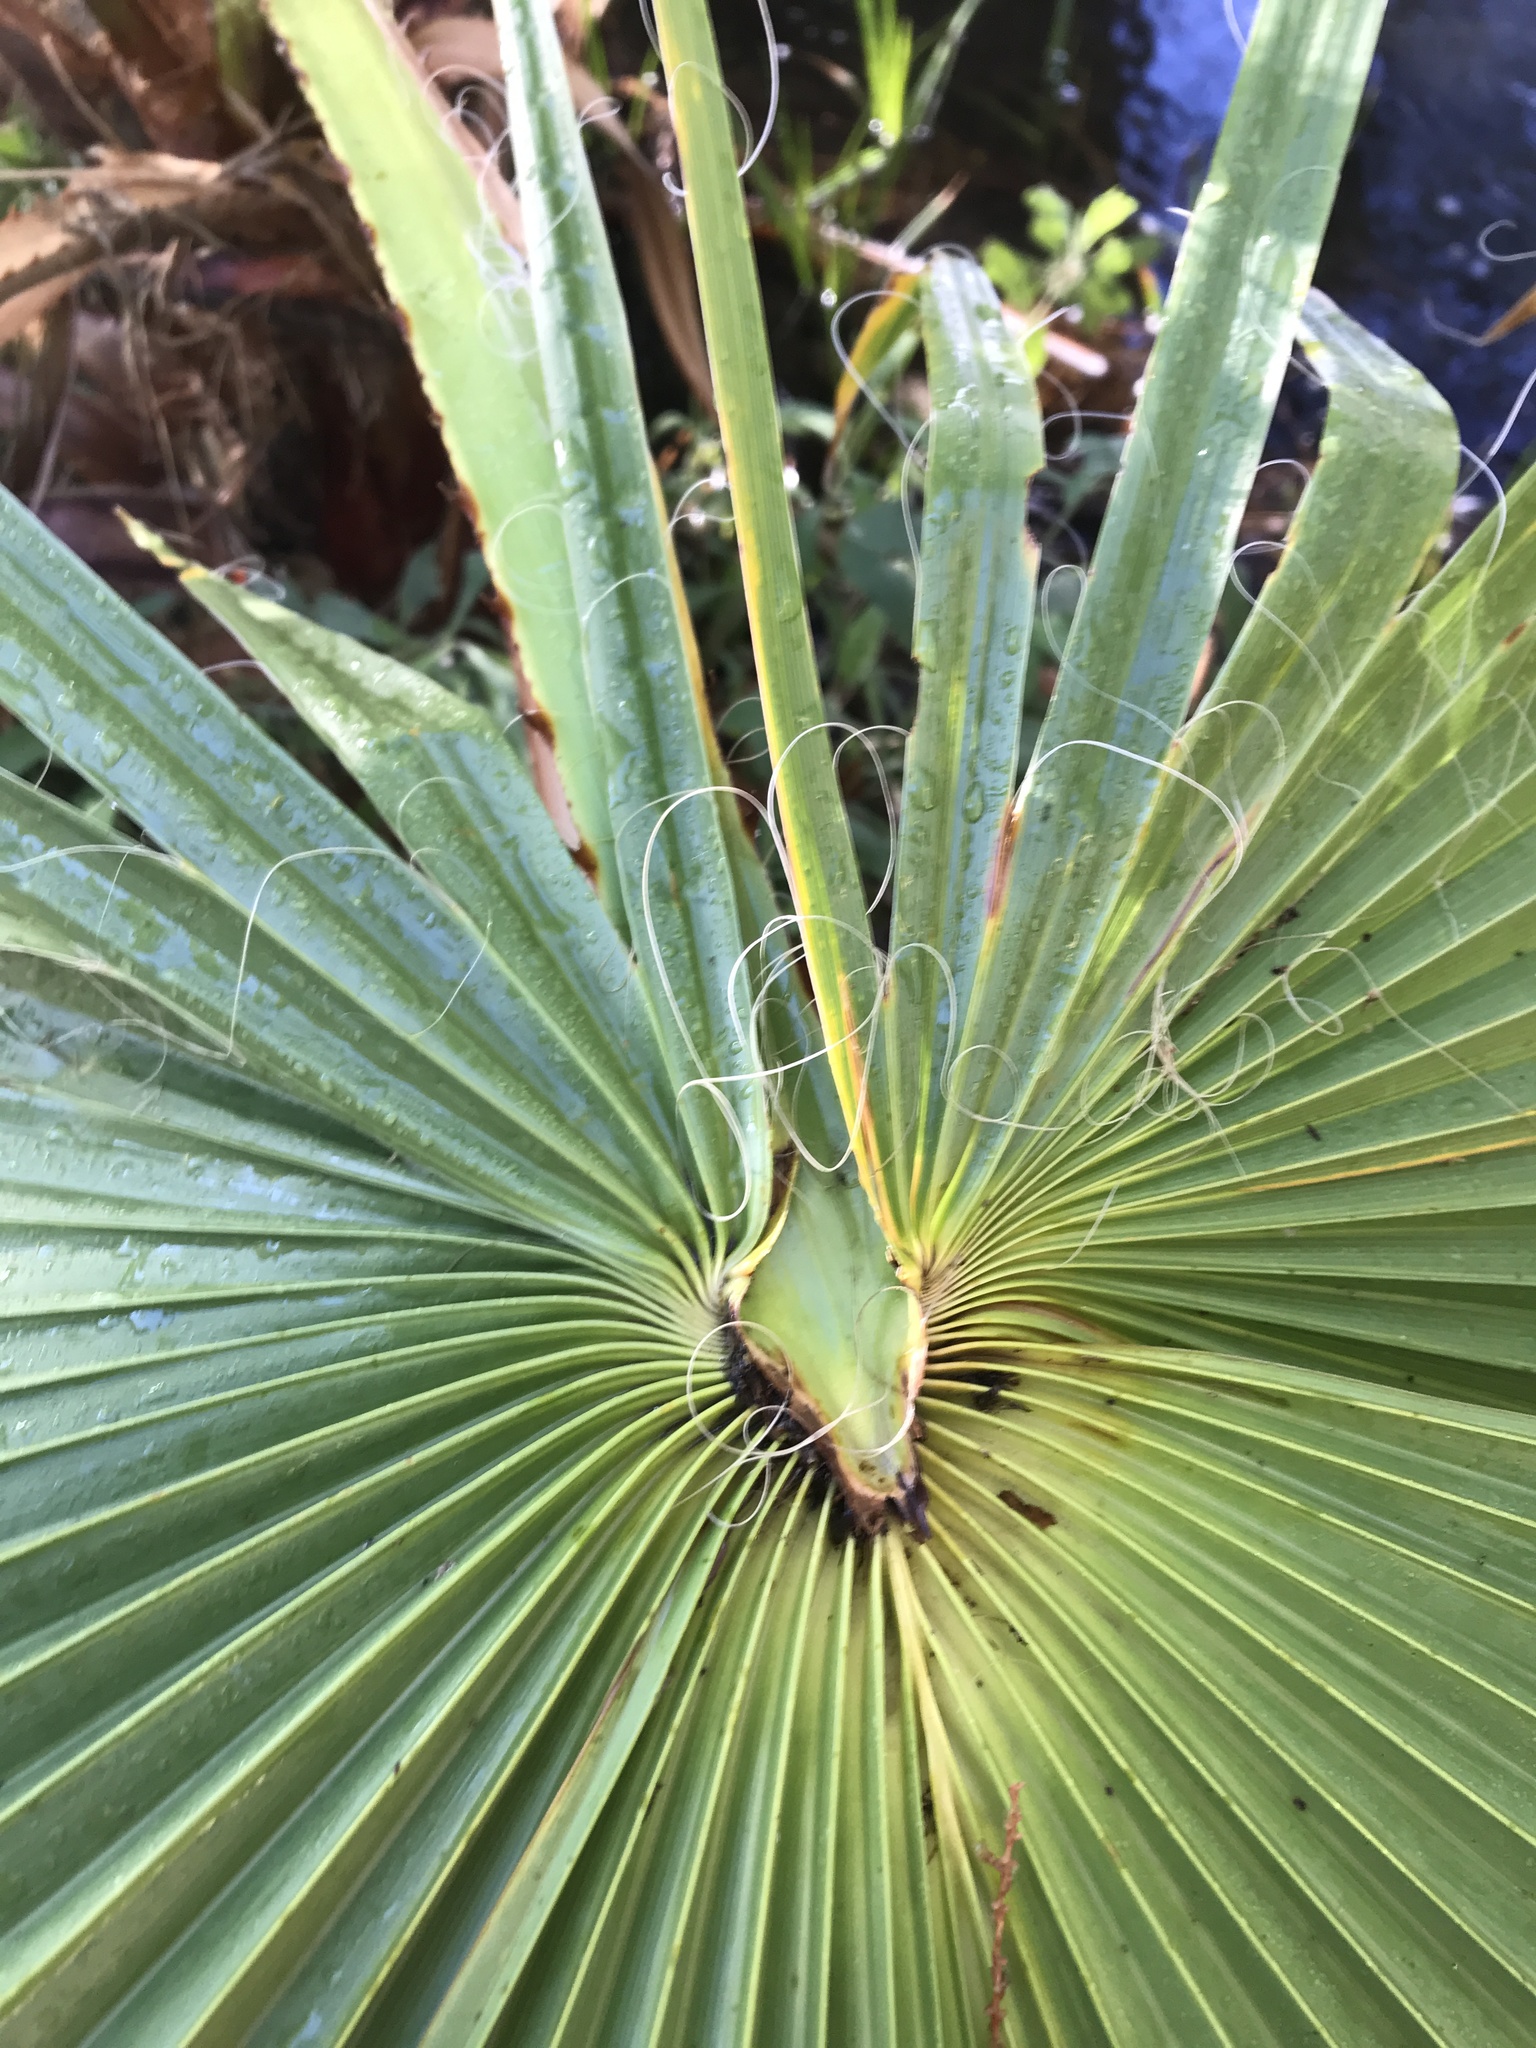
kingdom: Plantae
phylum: Tracheophyta
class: Liliopsida
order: Arecales
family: Arecaceae
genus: Washingtonia
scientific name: Washingtonia filifera
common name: California fan palm
